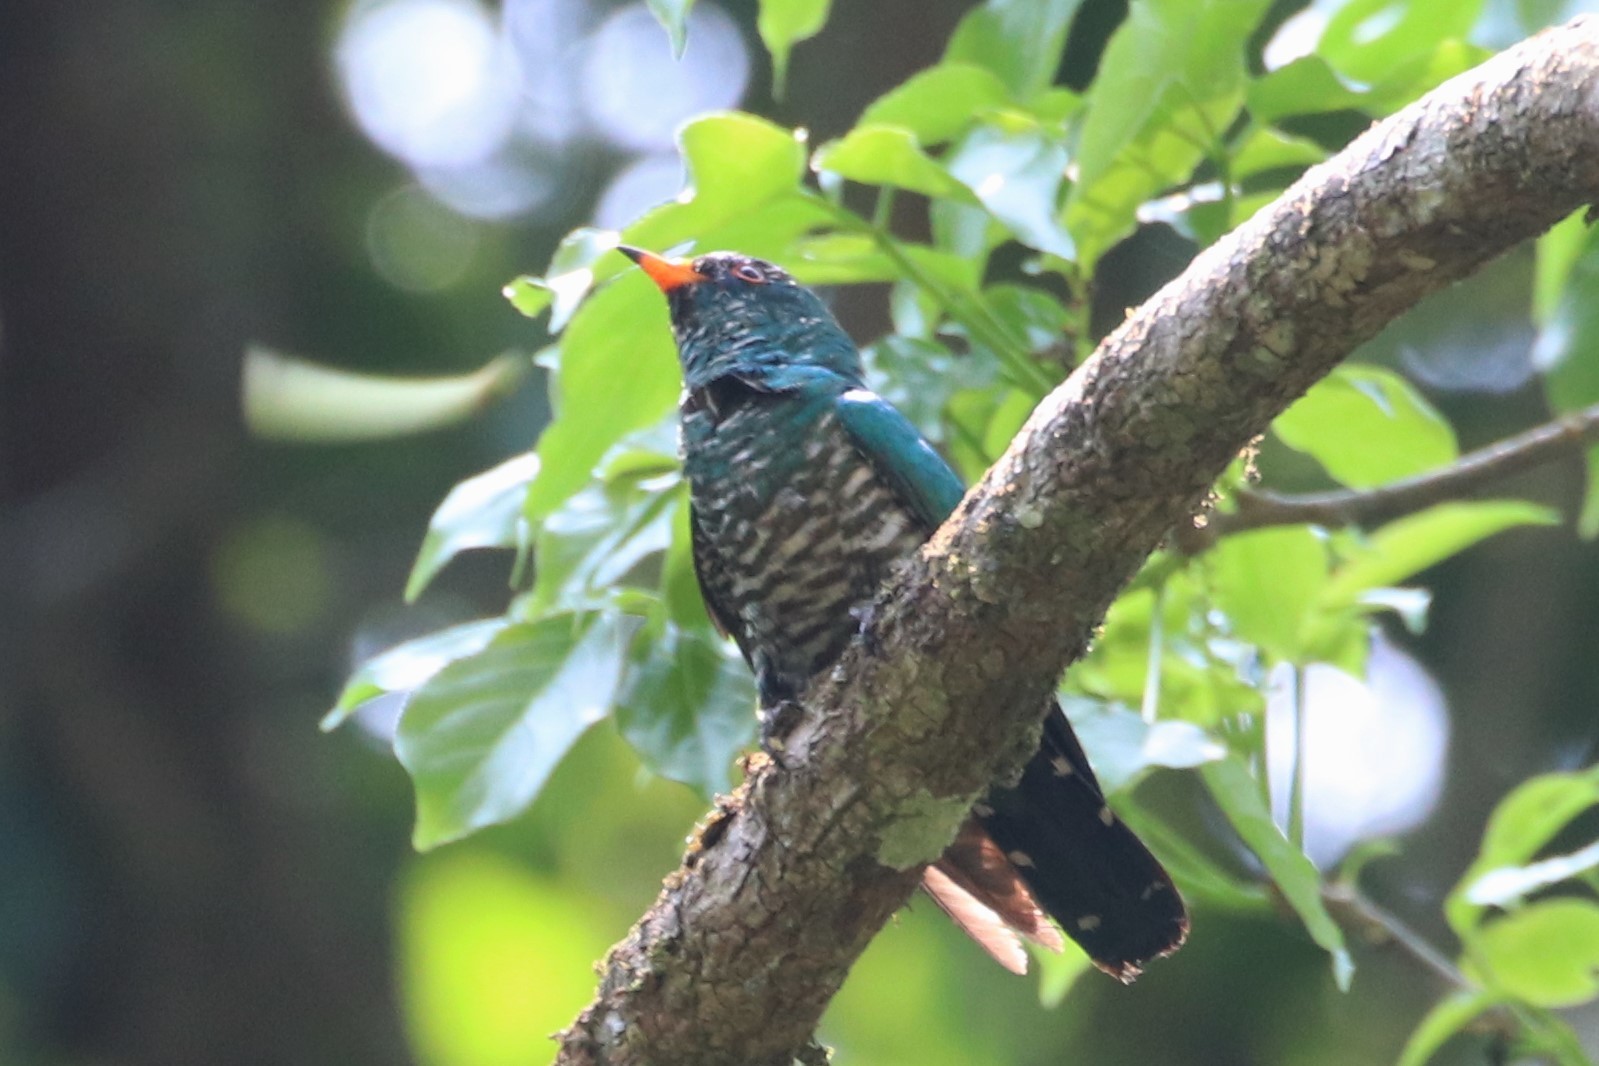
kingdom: Animalia
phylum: Chordata
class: Aves
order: Cuculiformes
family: Cuculidae
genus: Chrysococcyx
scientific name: Chrysococcyx maculatus
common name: Asian emerald cuckoo
